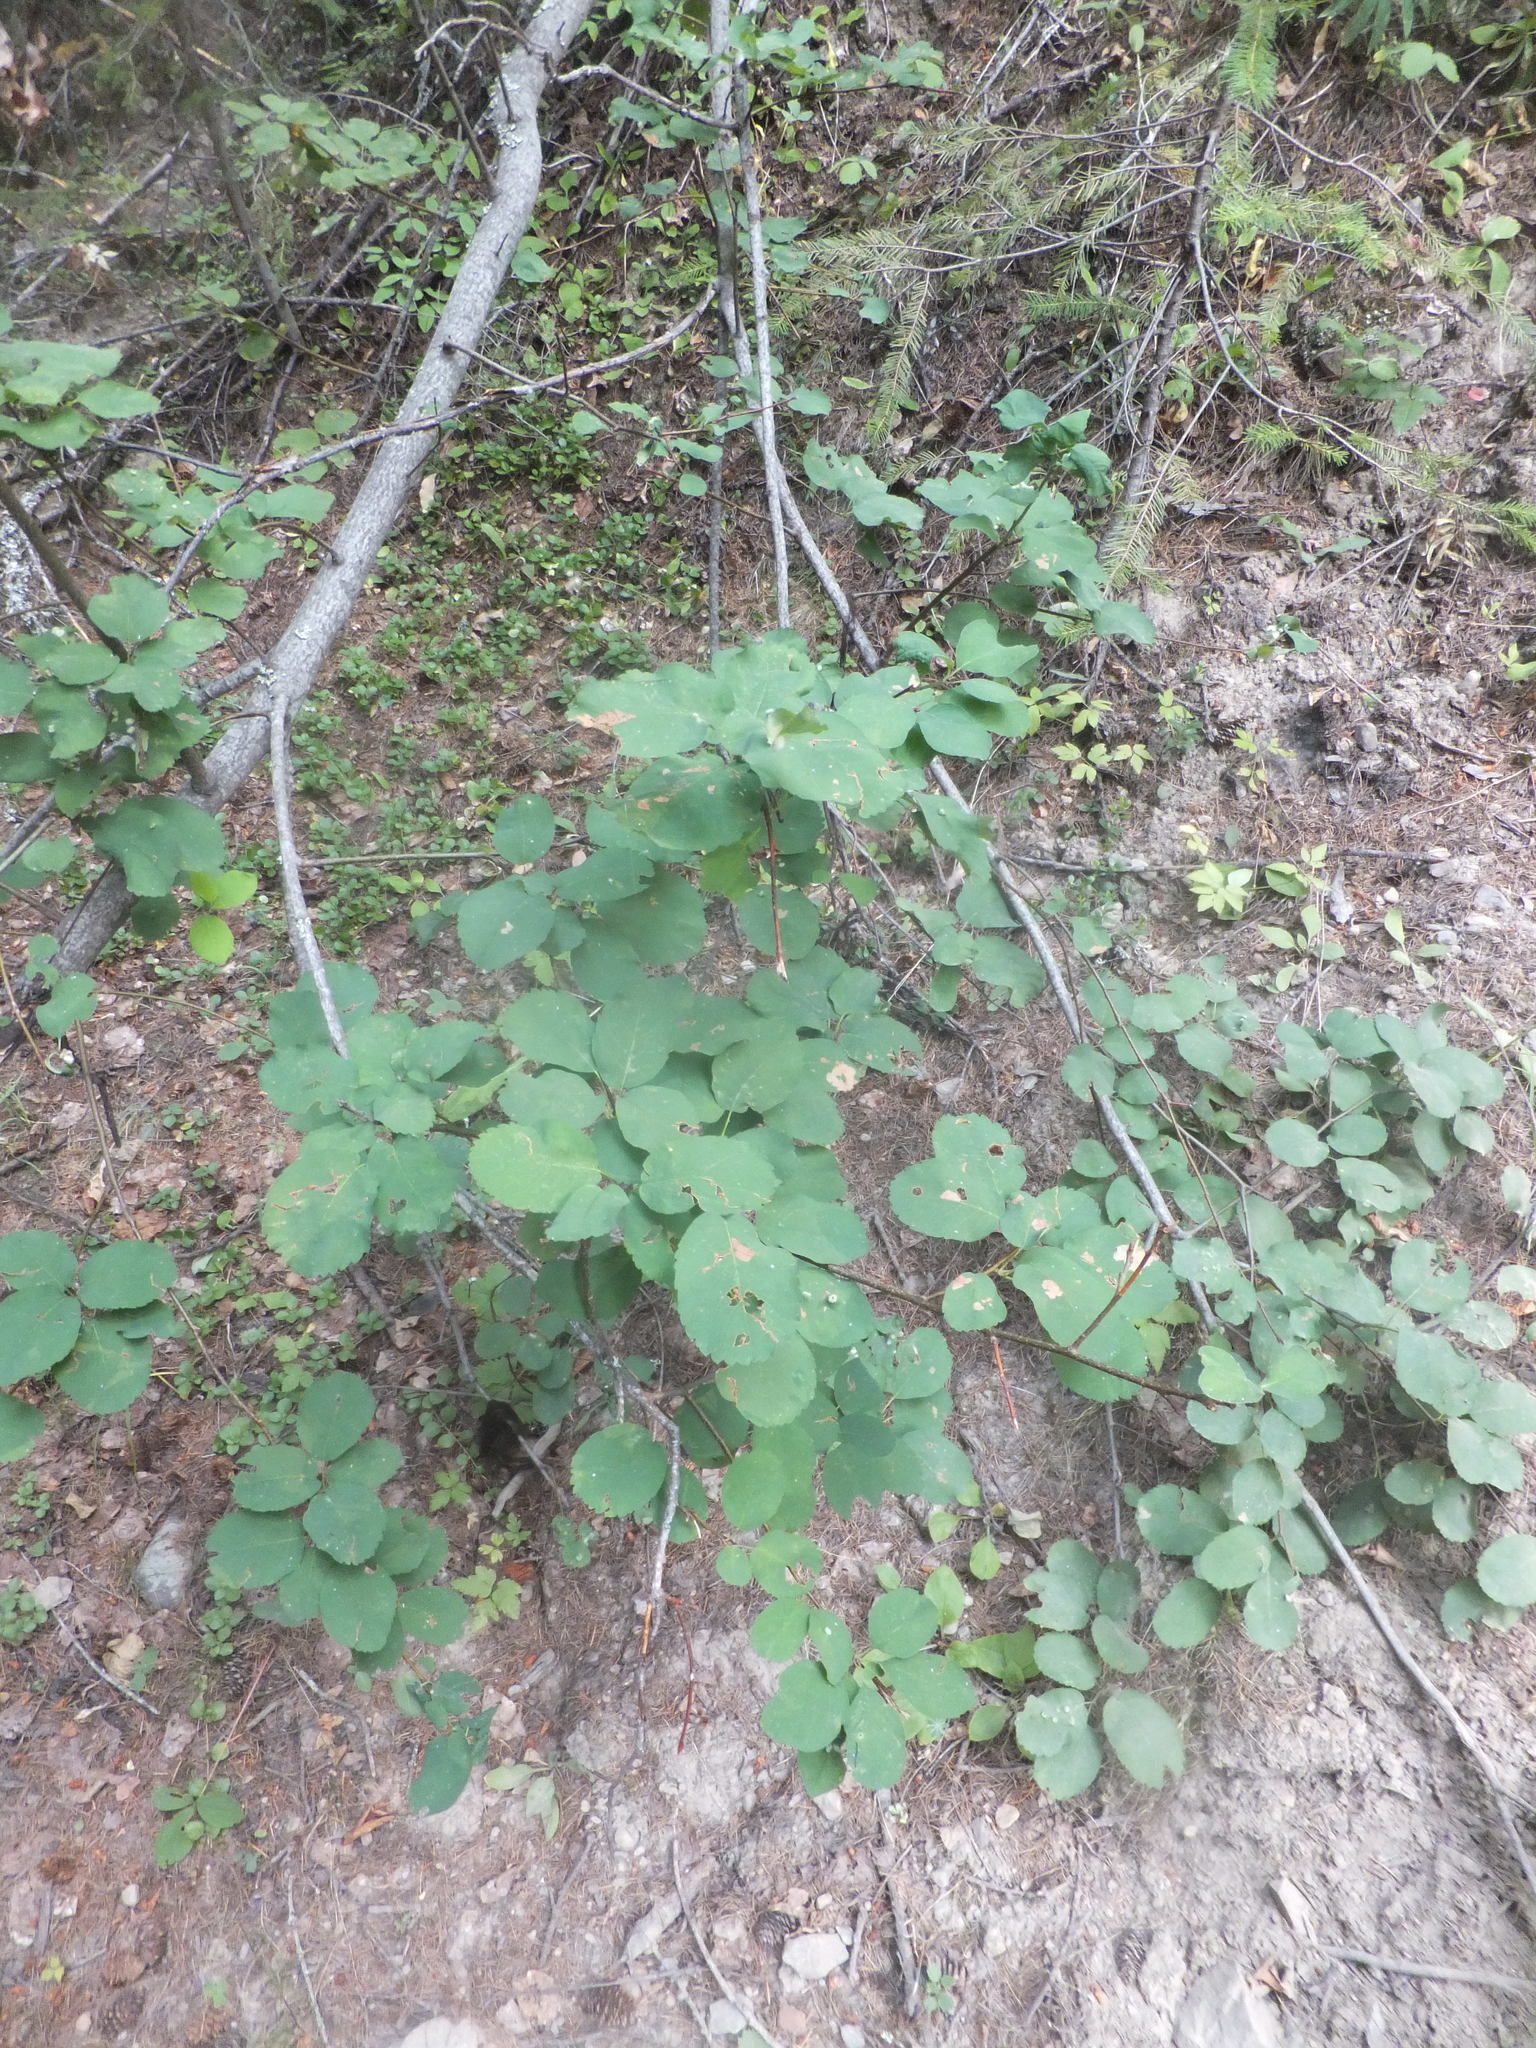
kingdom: Plantae
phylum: Tracheophyta
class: Magnoliopsida
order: Rosales
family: Rosaceae
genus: Amelanchier
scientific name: Amelanchier alnifolia
